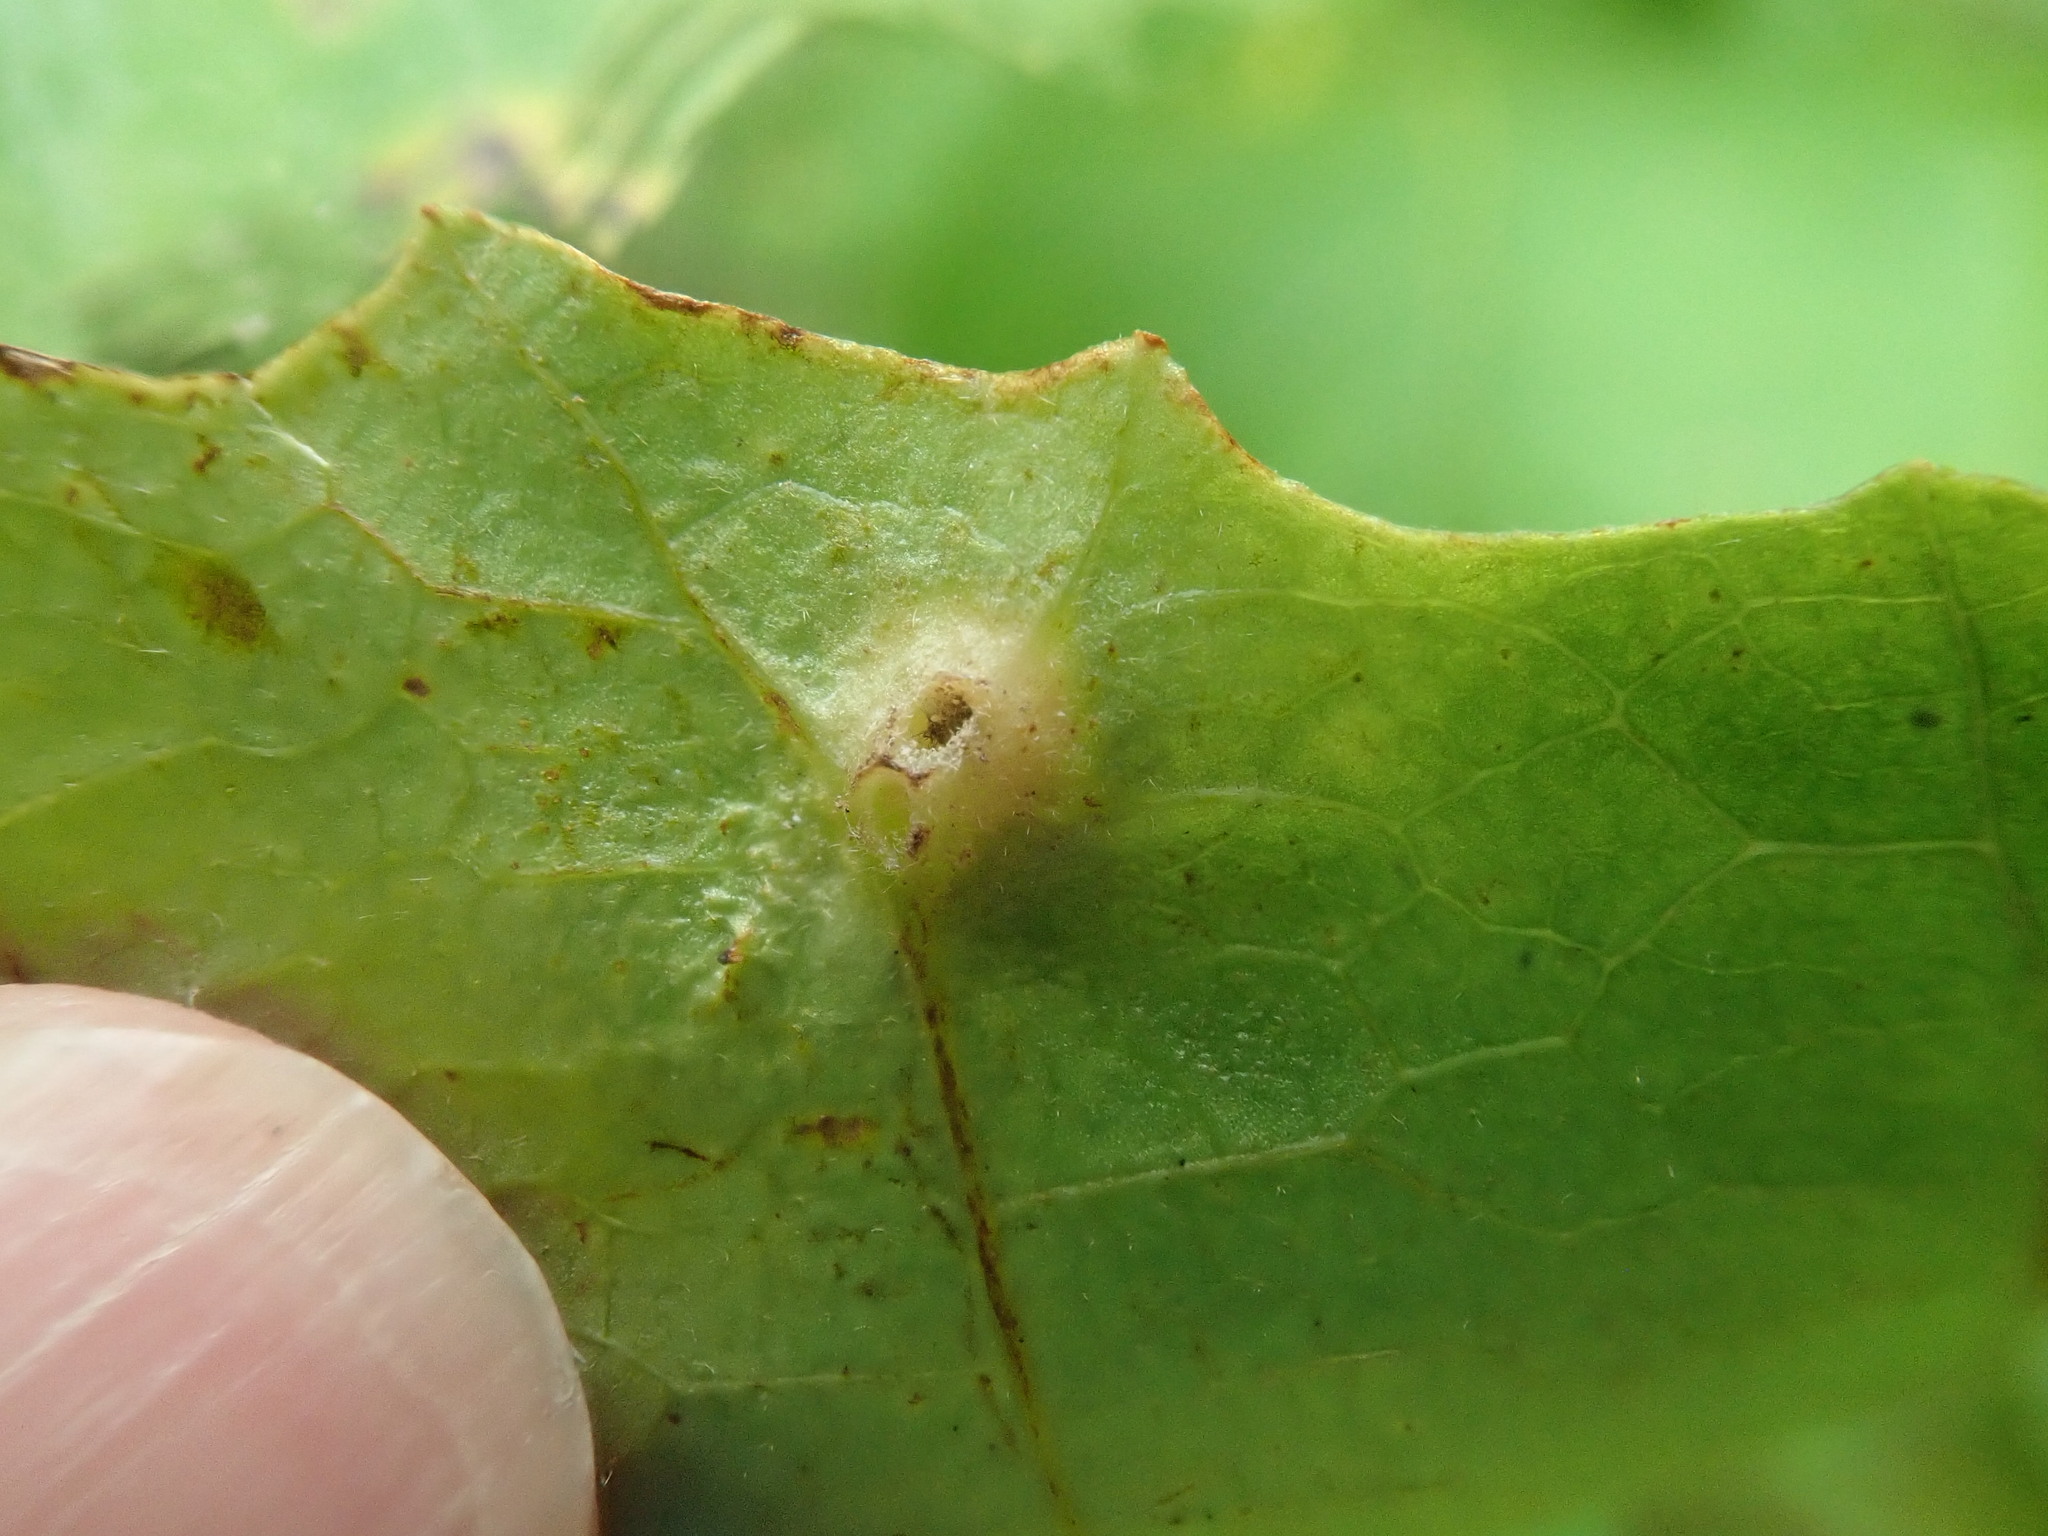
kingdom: Animalia
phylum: Arthropoda
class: Insecta
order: Hemiptera
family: Aphididae
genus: Hormaphis
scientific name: Hormaphis hamamelidis
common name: Witch-hazel cone gall aphid
